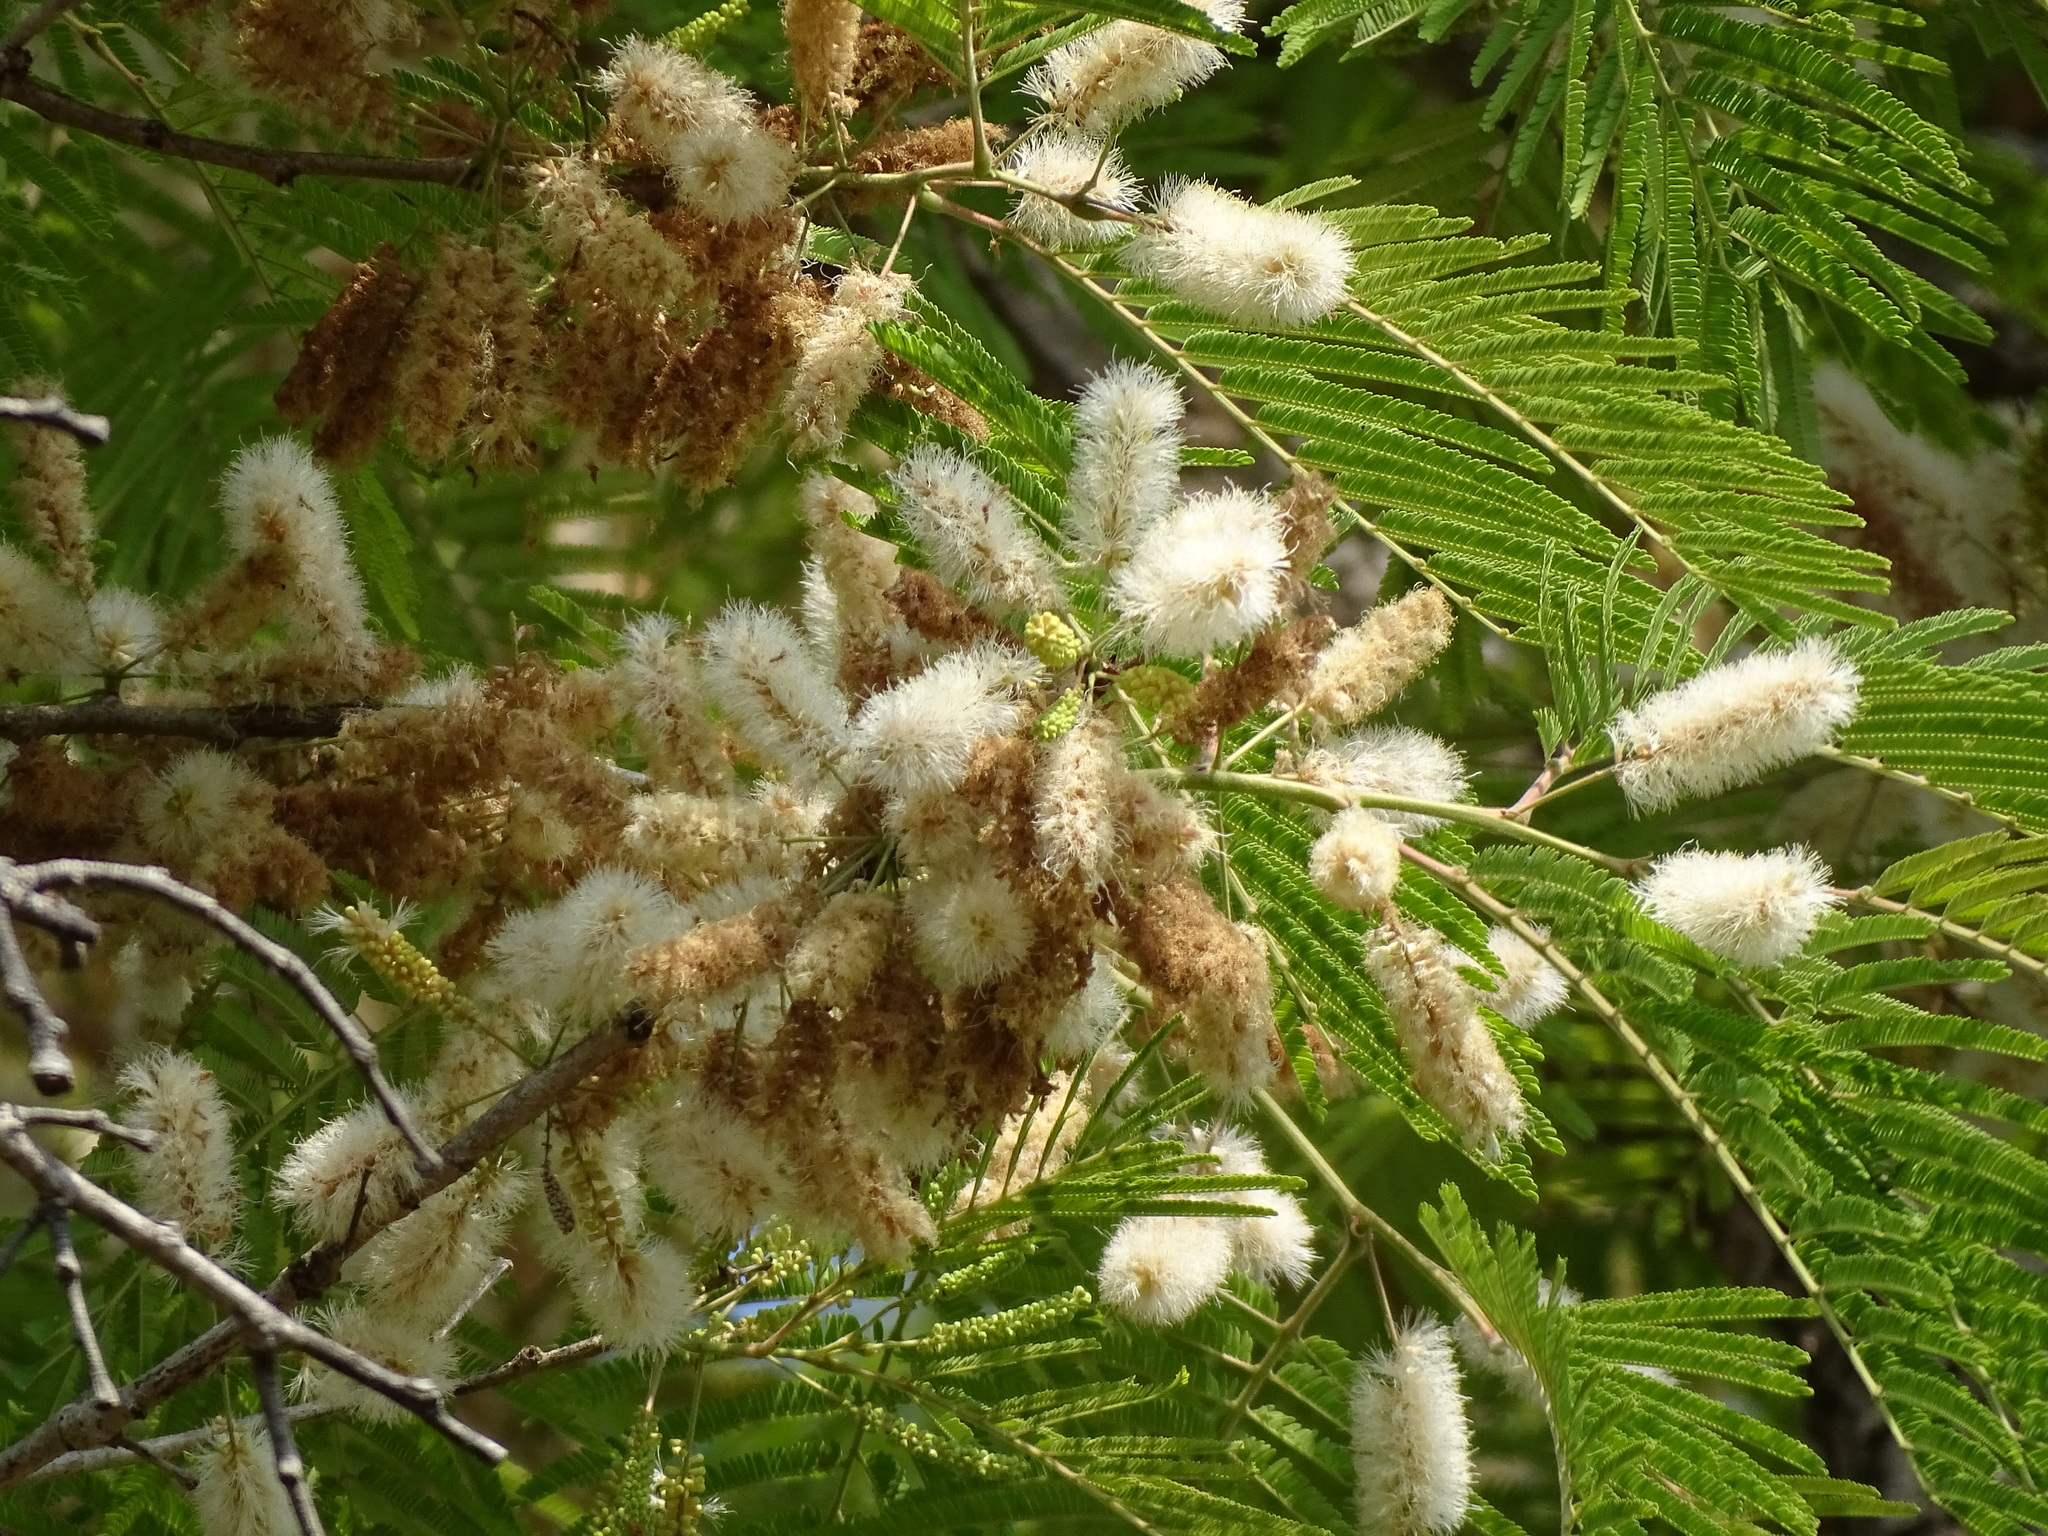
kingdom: Plantae
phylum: Tracheophyta
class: Magnoliopsida
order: Fabales
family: Fabaceae
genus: Mariosousa
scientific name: Mariosousa dolichostachya
